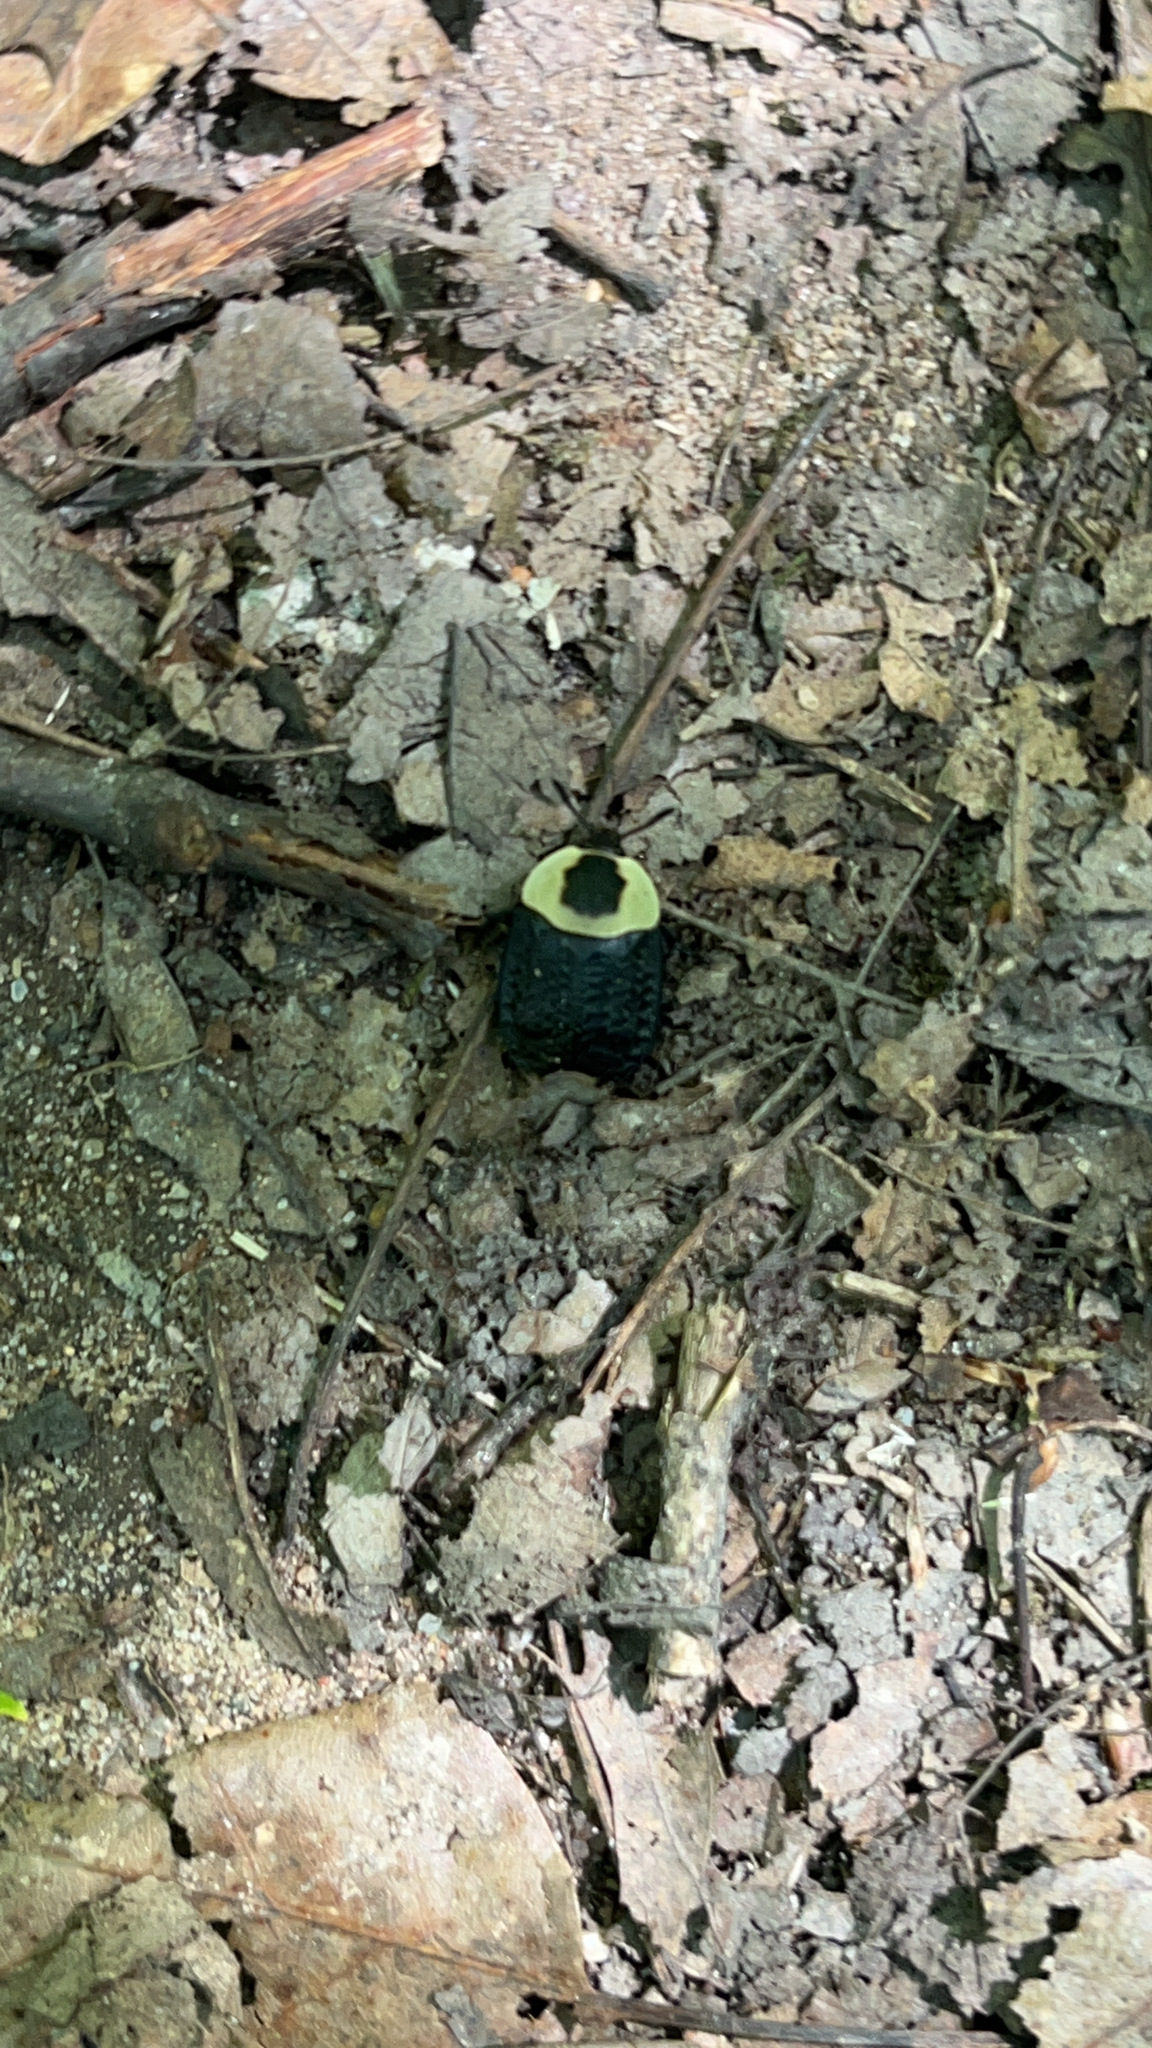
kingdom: Animalia
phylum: Arthropoda
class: Insecta
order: Coleoptera
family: Staphylinidae
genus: Necrophila
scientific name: Necrophila americana
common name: American carrion beetle
